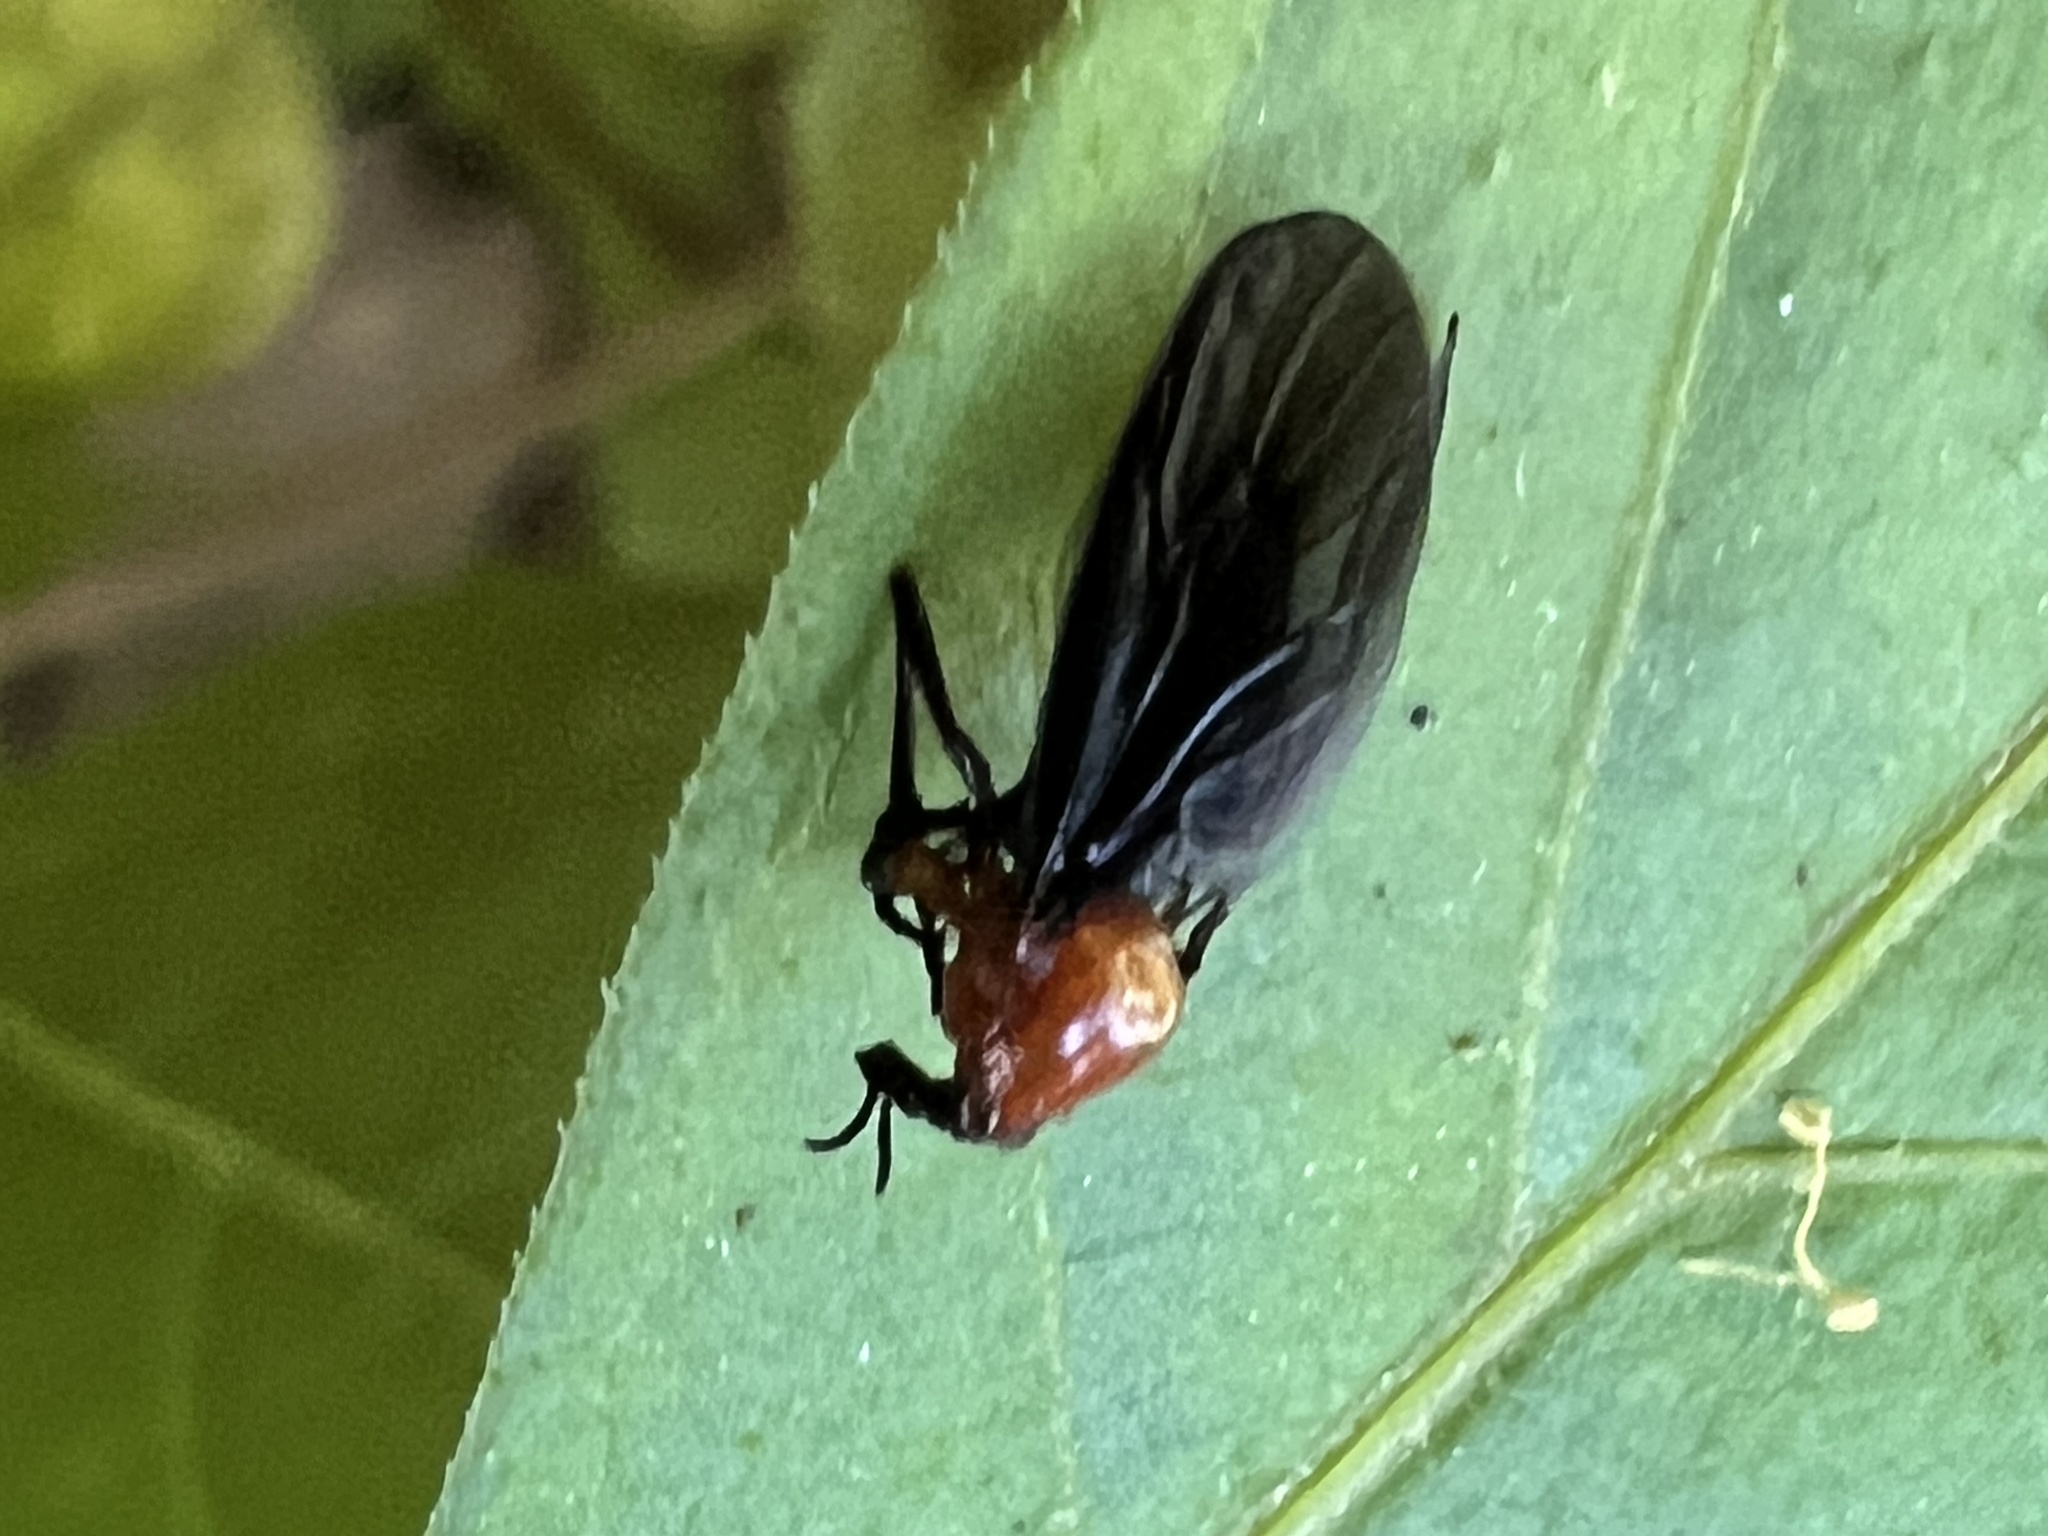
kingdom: Animalia
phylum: Arthropoda
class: Insecta
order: Diptera
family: Bibionidae
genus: Dilophus
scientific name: Dilophus spinipes
